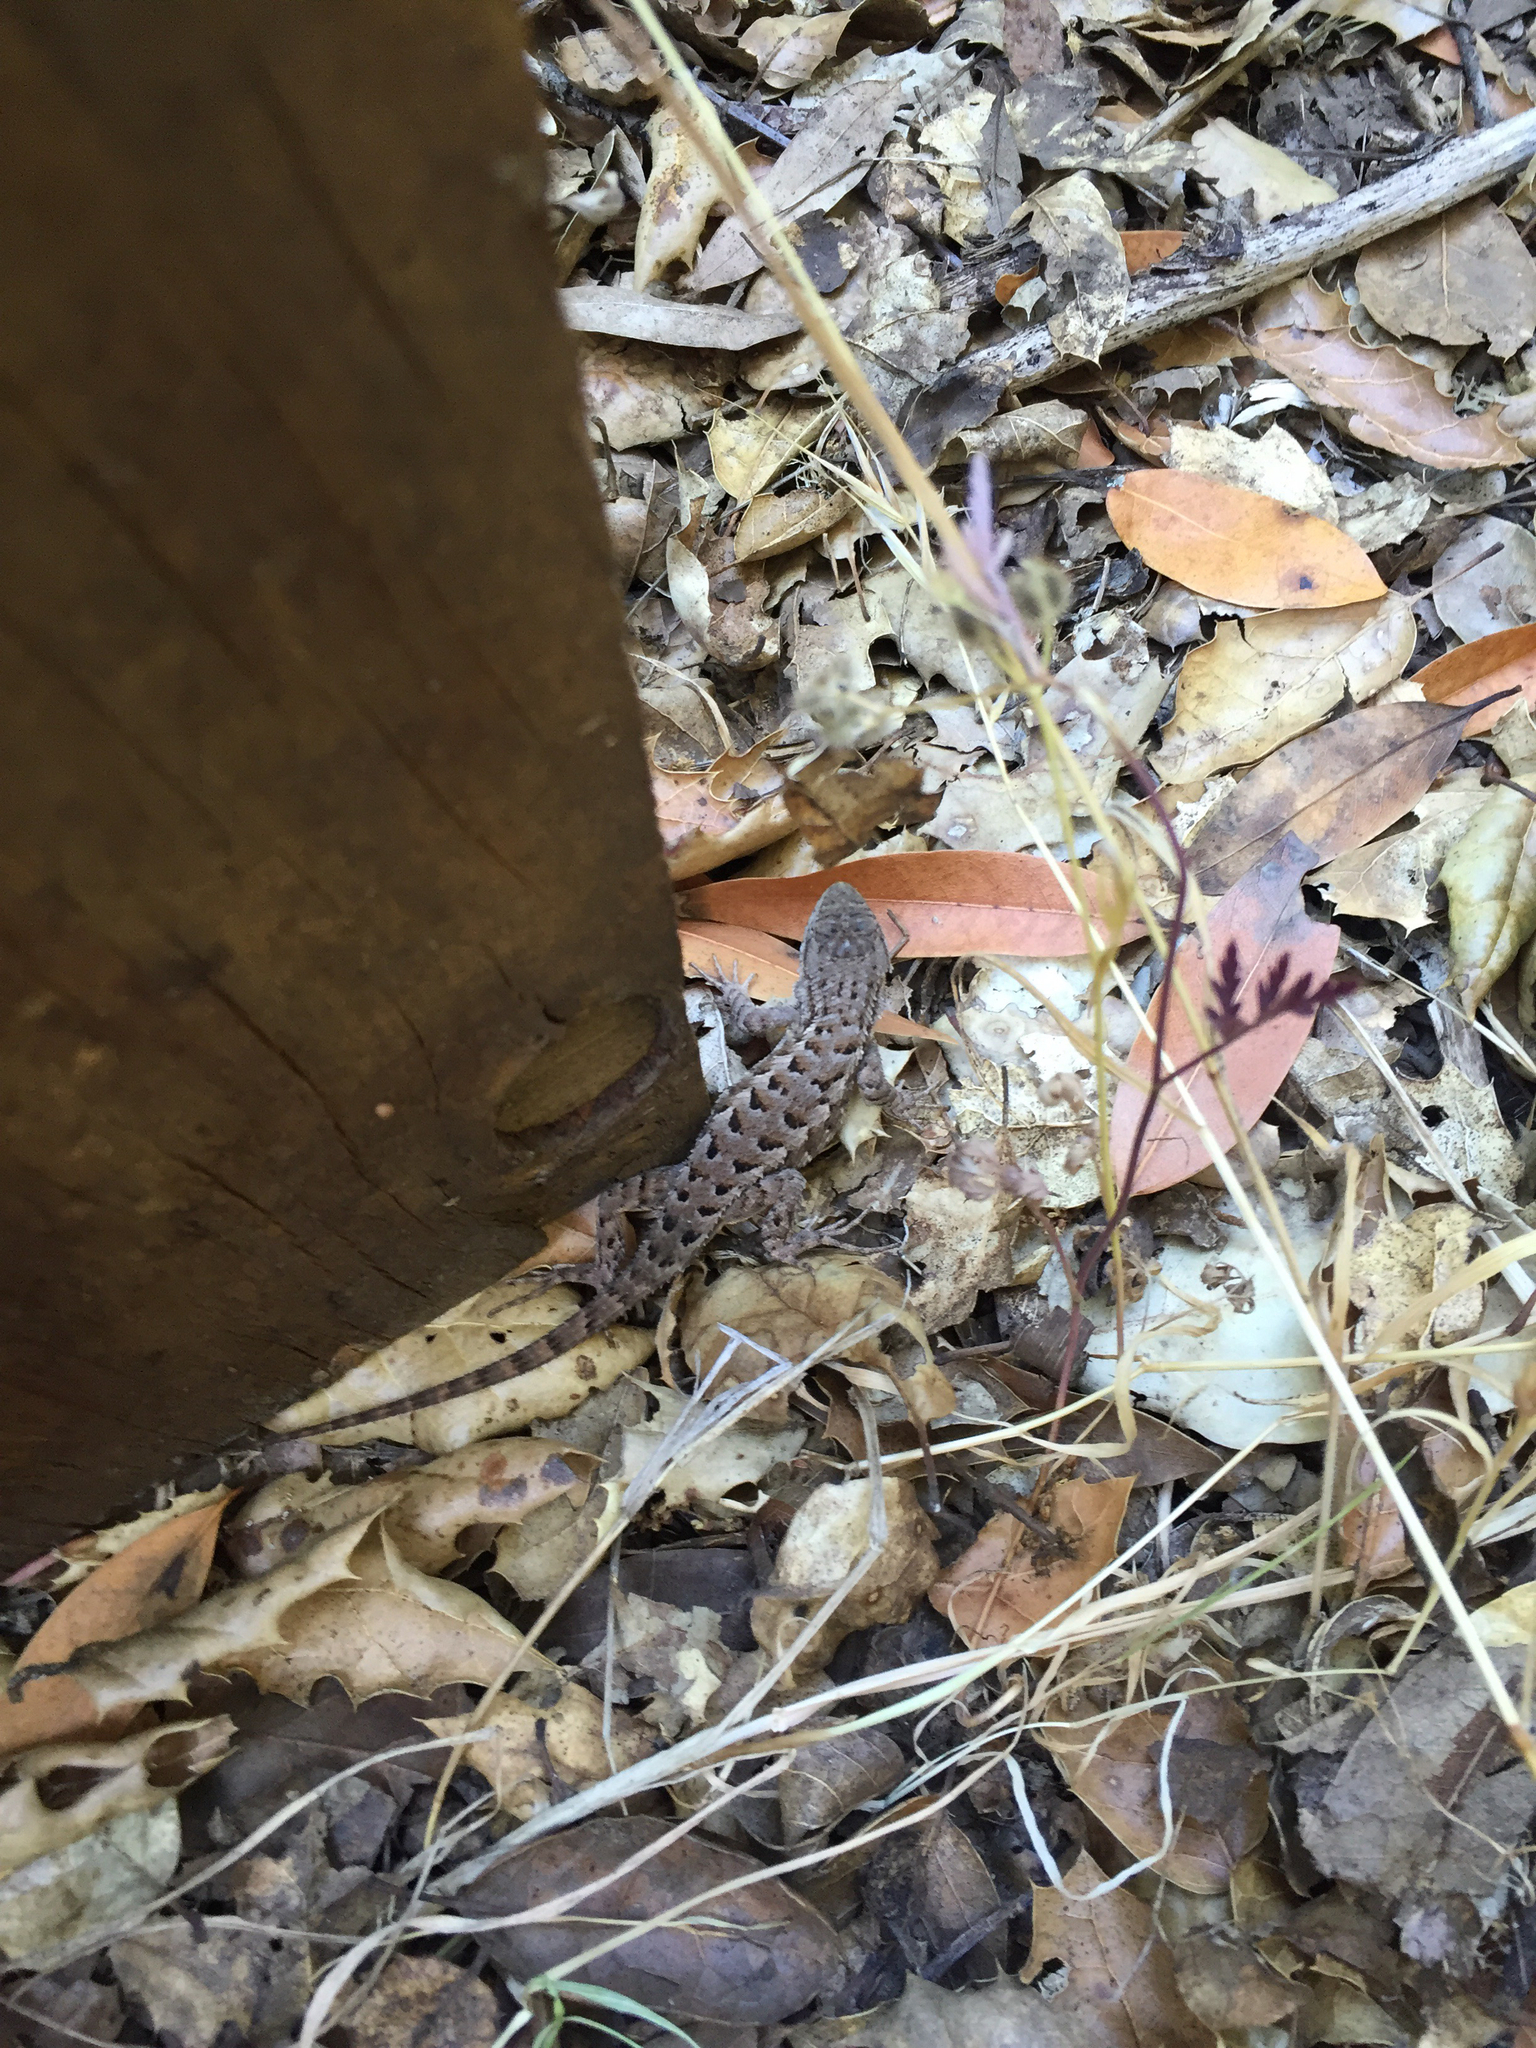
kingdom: Animalia
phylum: Chordata
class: Squamata
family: Phrynosomatidae
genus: Sceloporus
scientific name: Sceloporus occidentalis
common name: Western fence lizard
